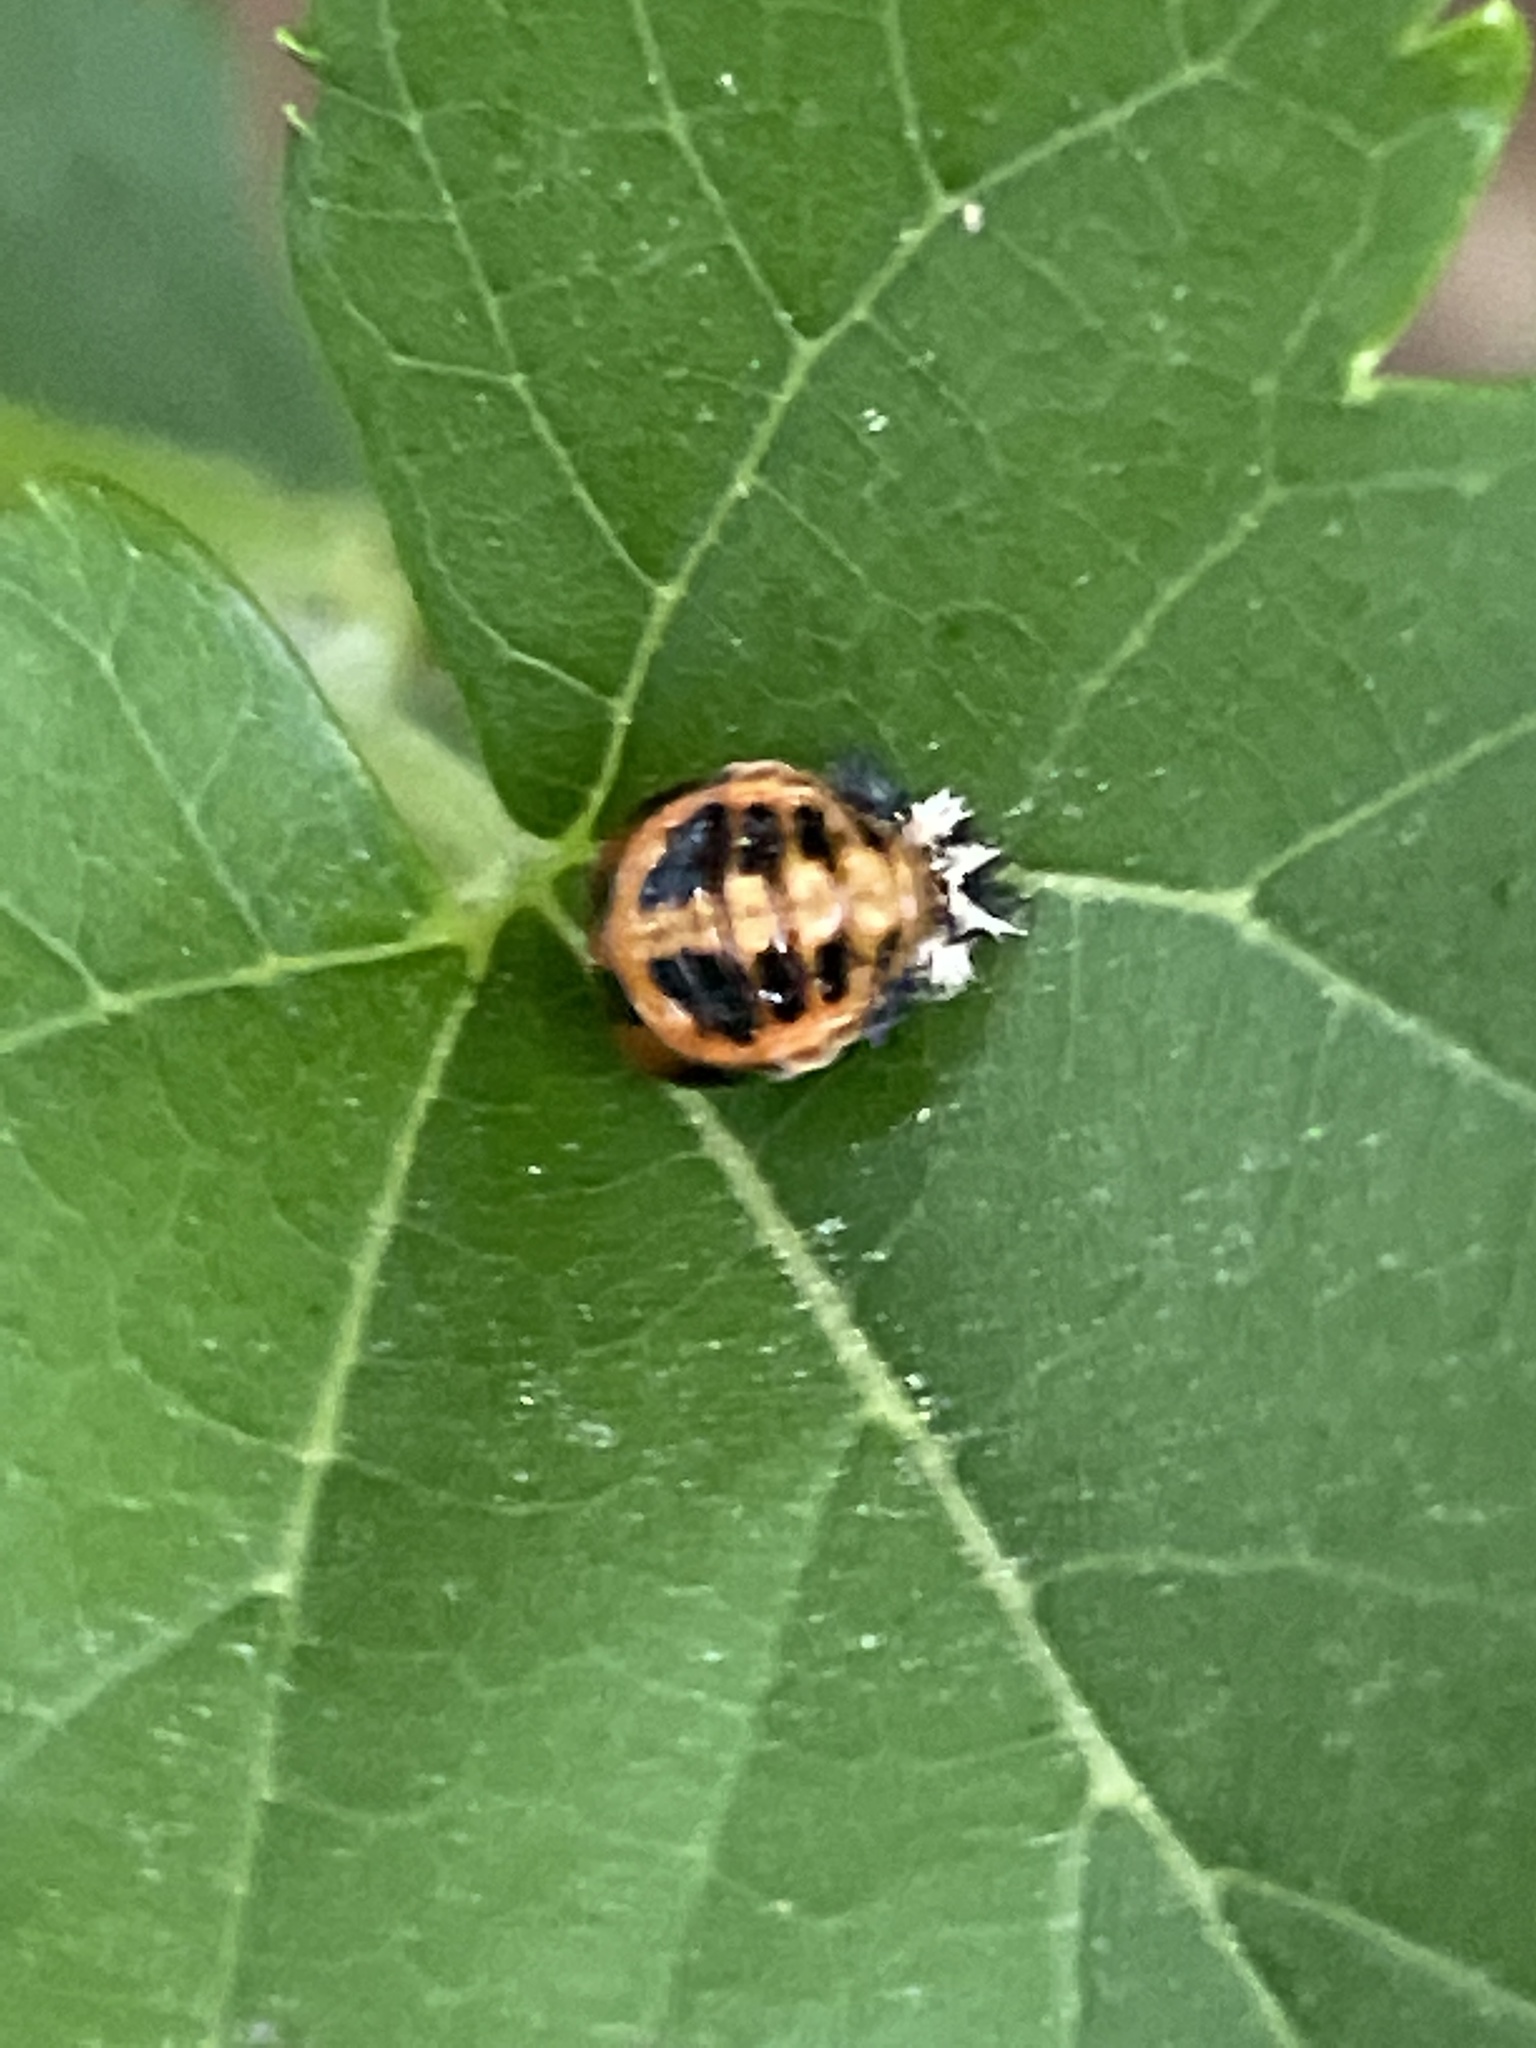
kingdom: Animalia
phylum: Arthropoda
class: Insecta
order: Coleoptera
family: Coccinellidae
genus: Harmonia
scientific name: Harmonia axyridis
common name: Harlequin ladybird
